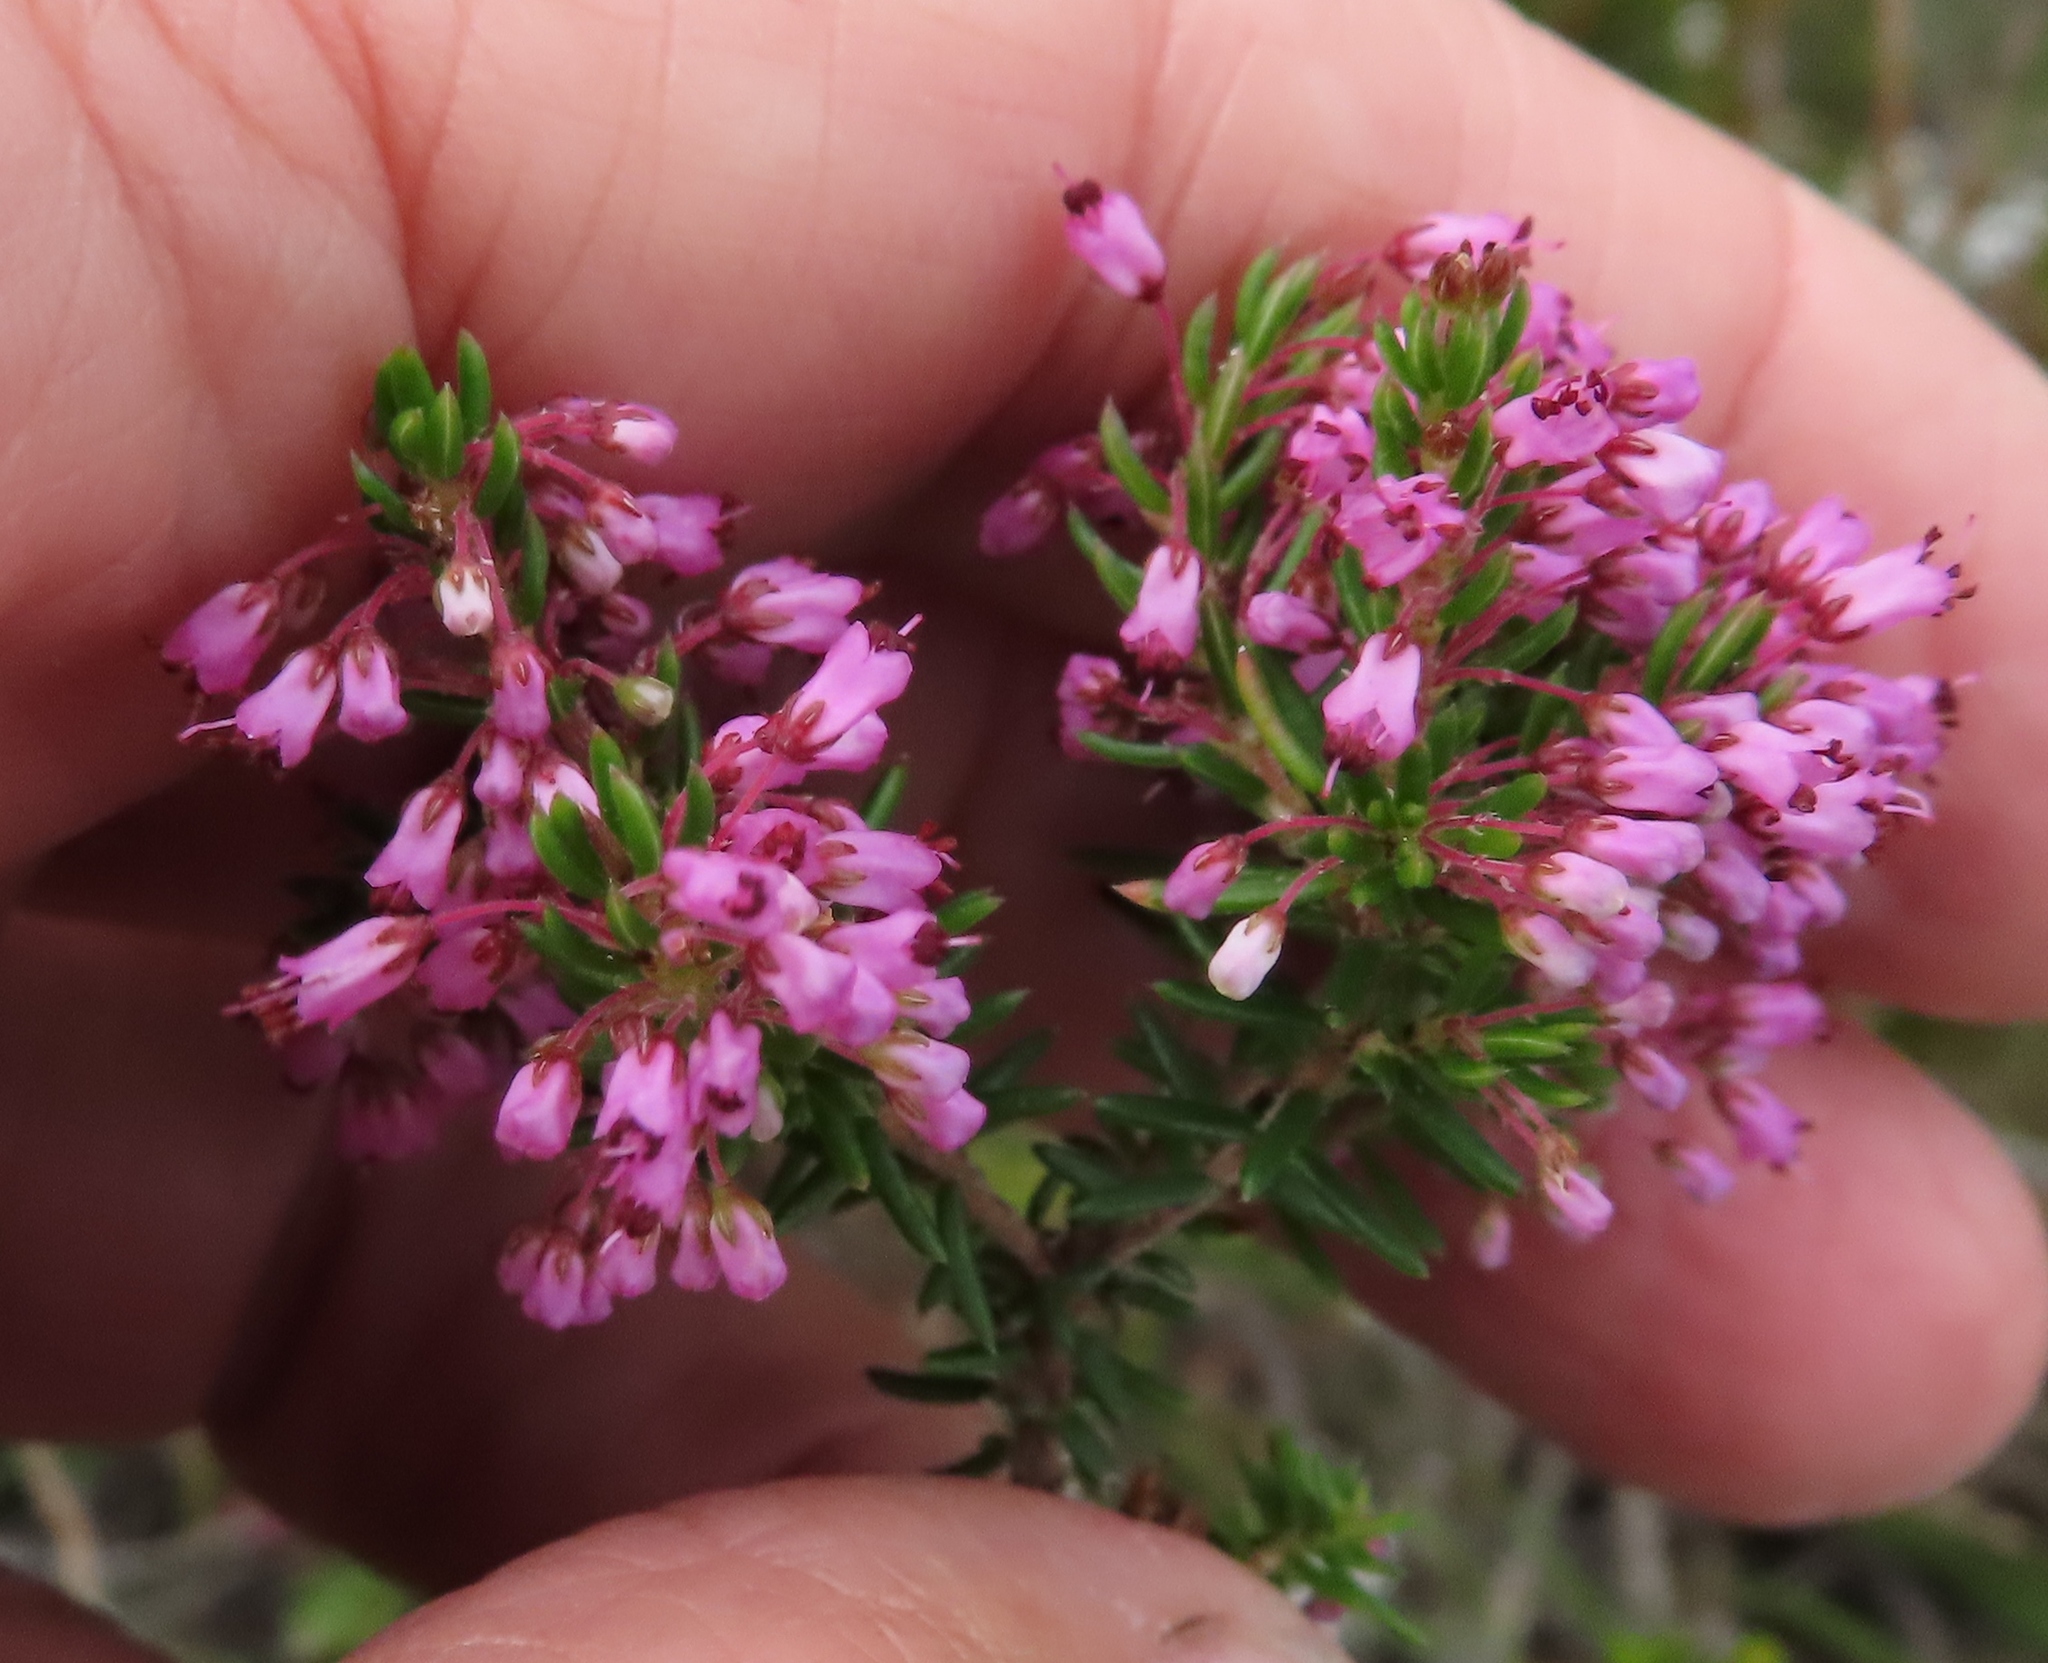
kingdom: Plantae
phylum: Tracheophyta
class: Magnoliopsida
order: Ericales
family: Ericaceae
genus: Erica
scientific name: Erica nudiflora
